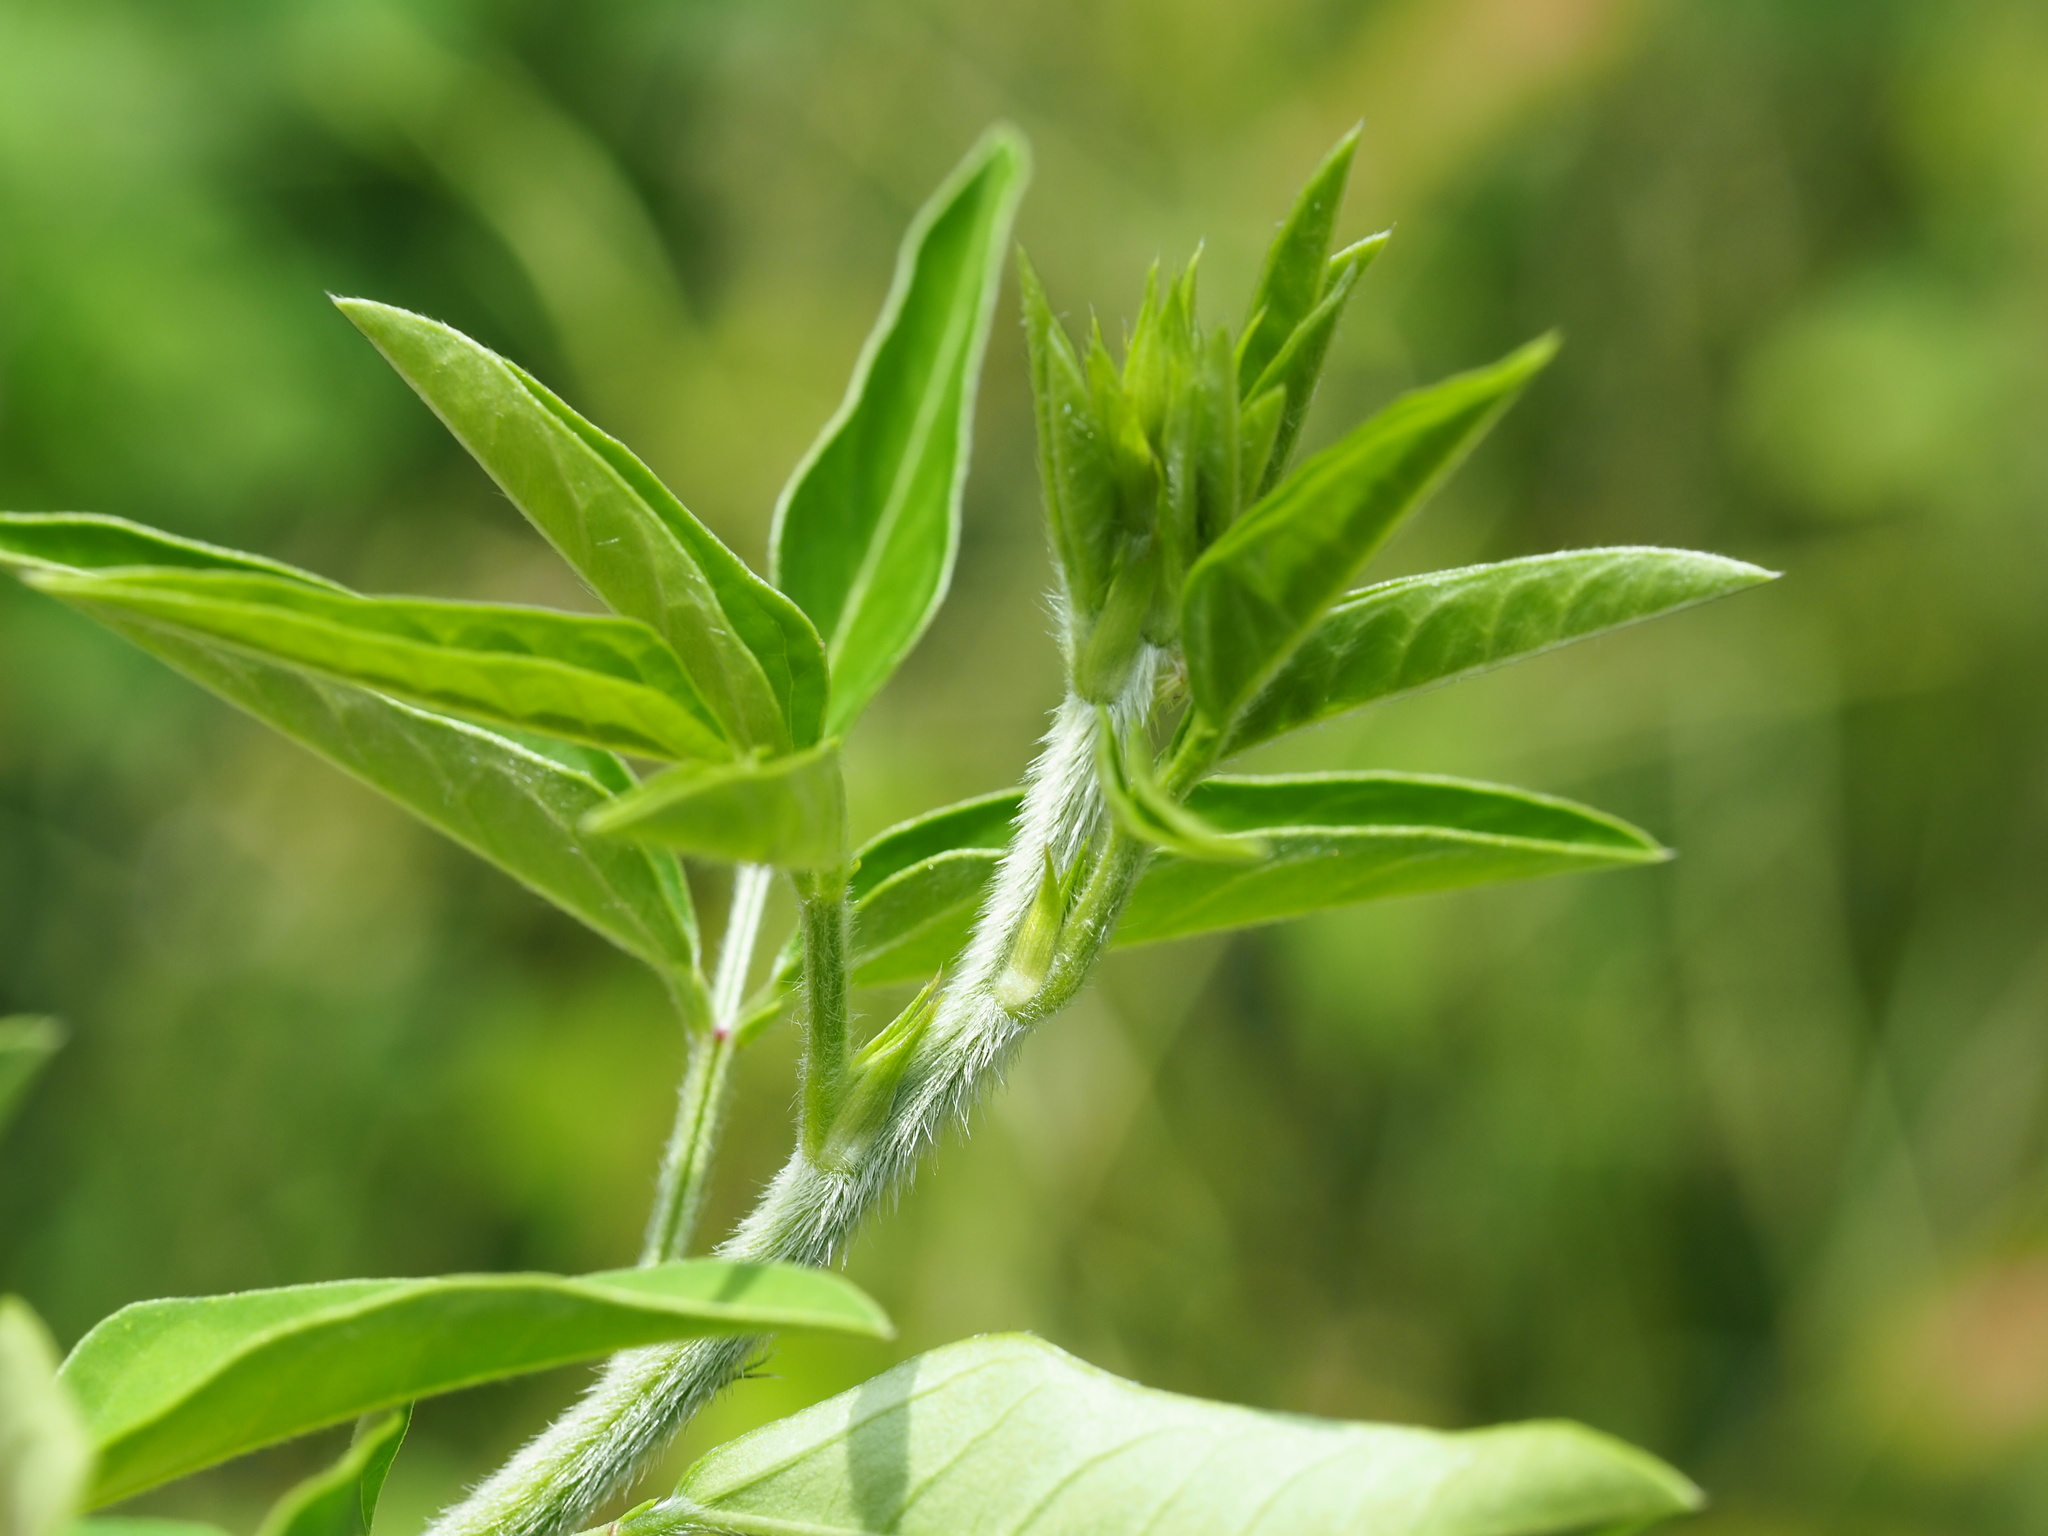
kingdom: Plantae
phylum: Tracheophyta
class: Magnoliopsida
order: Fabales
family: Fabaceae
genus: Macroptilium
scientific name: Macroptilium lathyroides
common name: Wild bushbean
